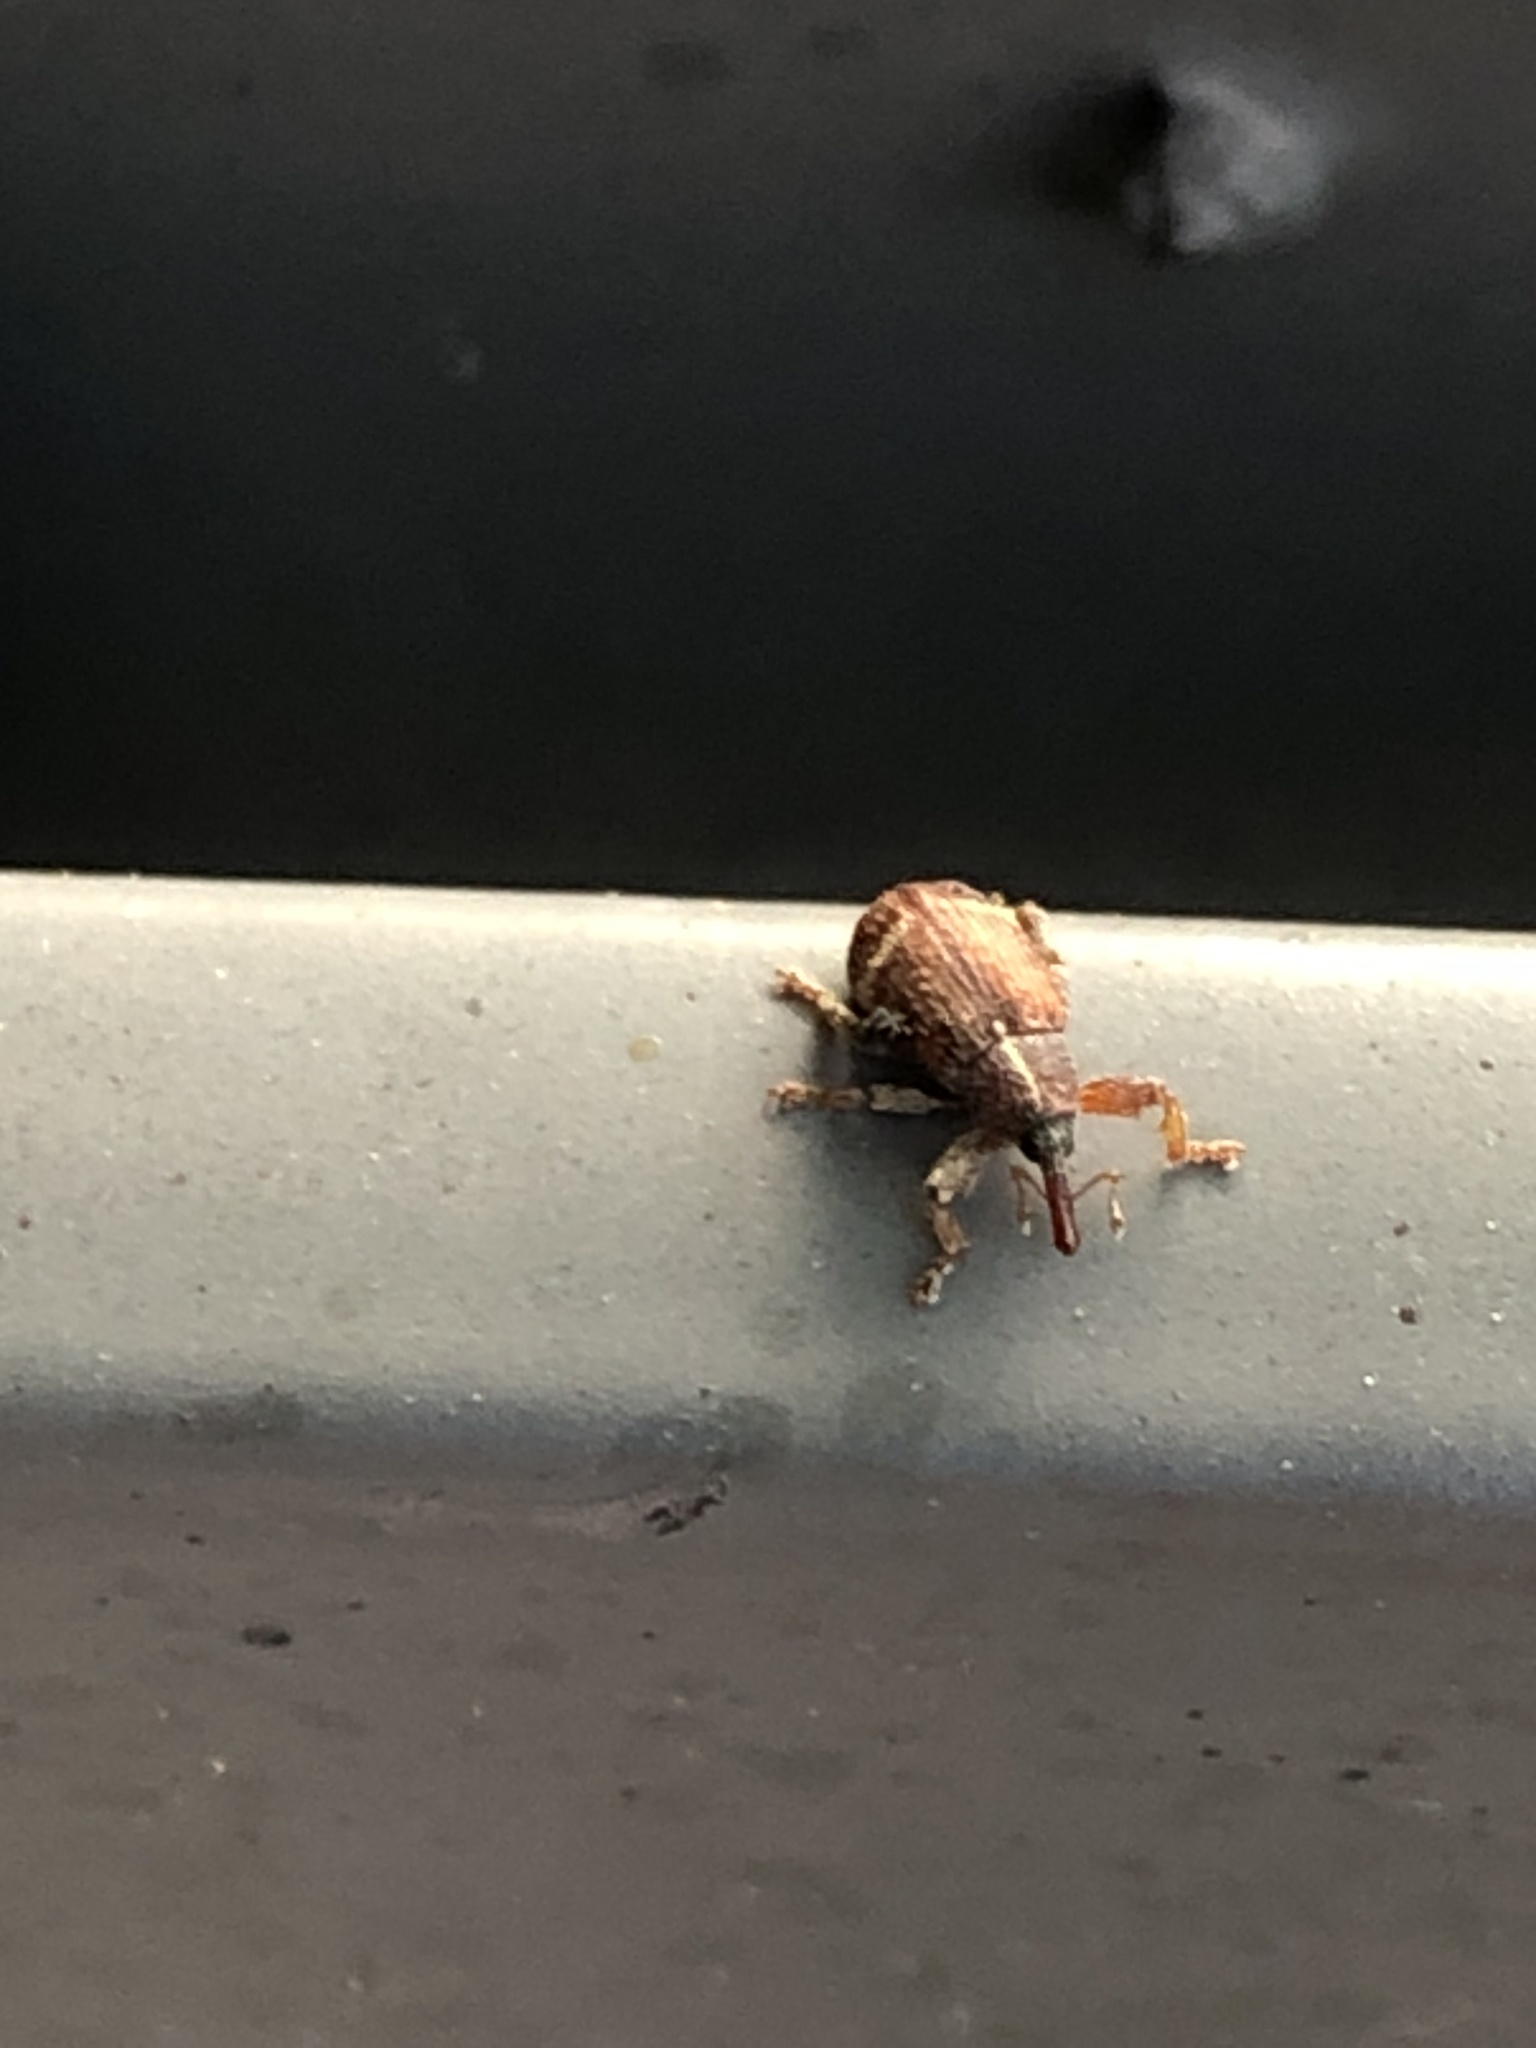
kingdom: Animalia
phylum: Arthropoda
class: Insecta
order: Coleoptera
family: Curculionidae
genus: Bradybatus
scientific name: Bradybatus fallax
